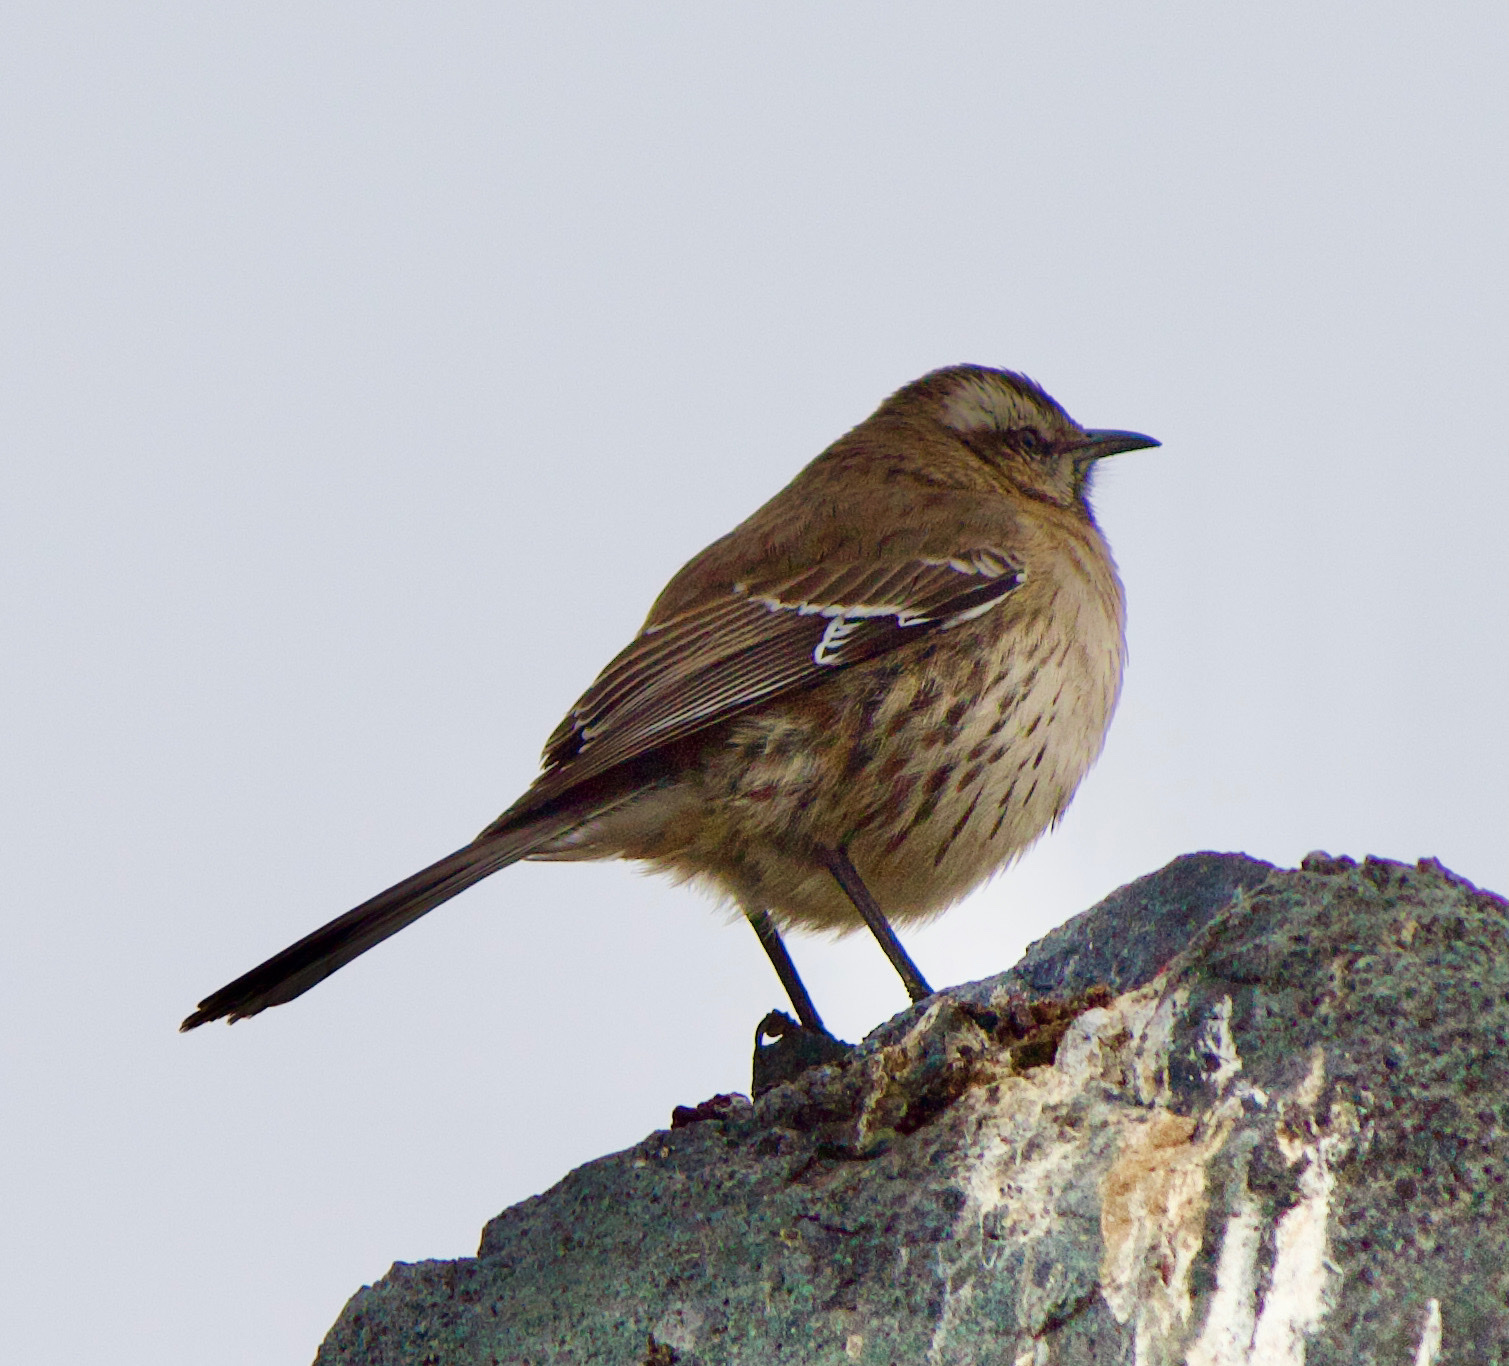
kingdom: Animalia
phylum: Chordata
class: Aves
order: Passeriformes
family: Mimidae
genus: Mimus
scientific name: Mimus thenca
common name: Chilean mockingbird
